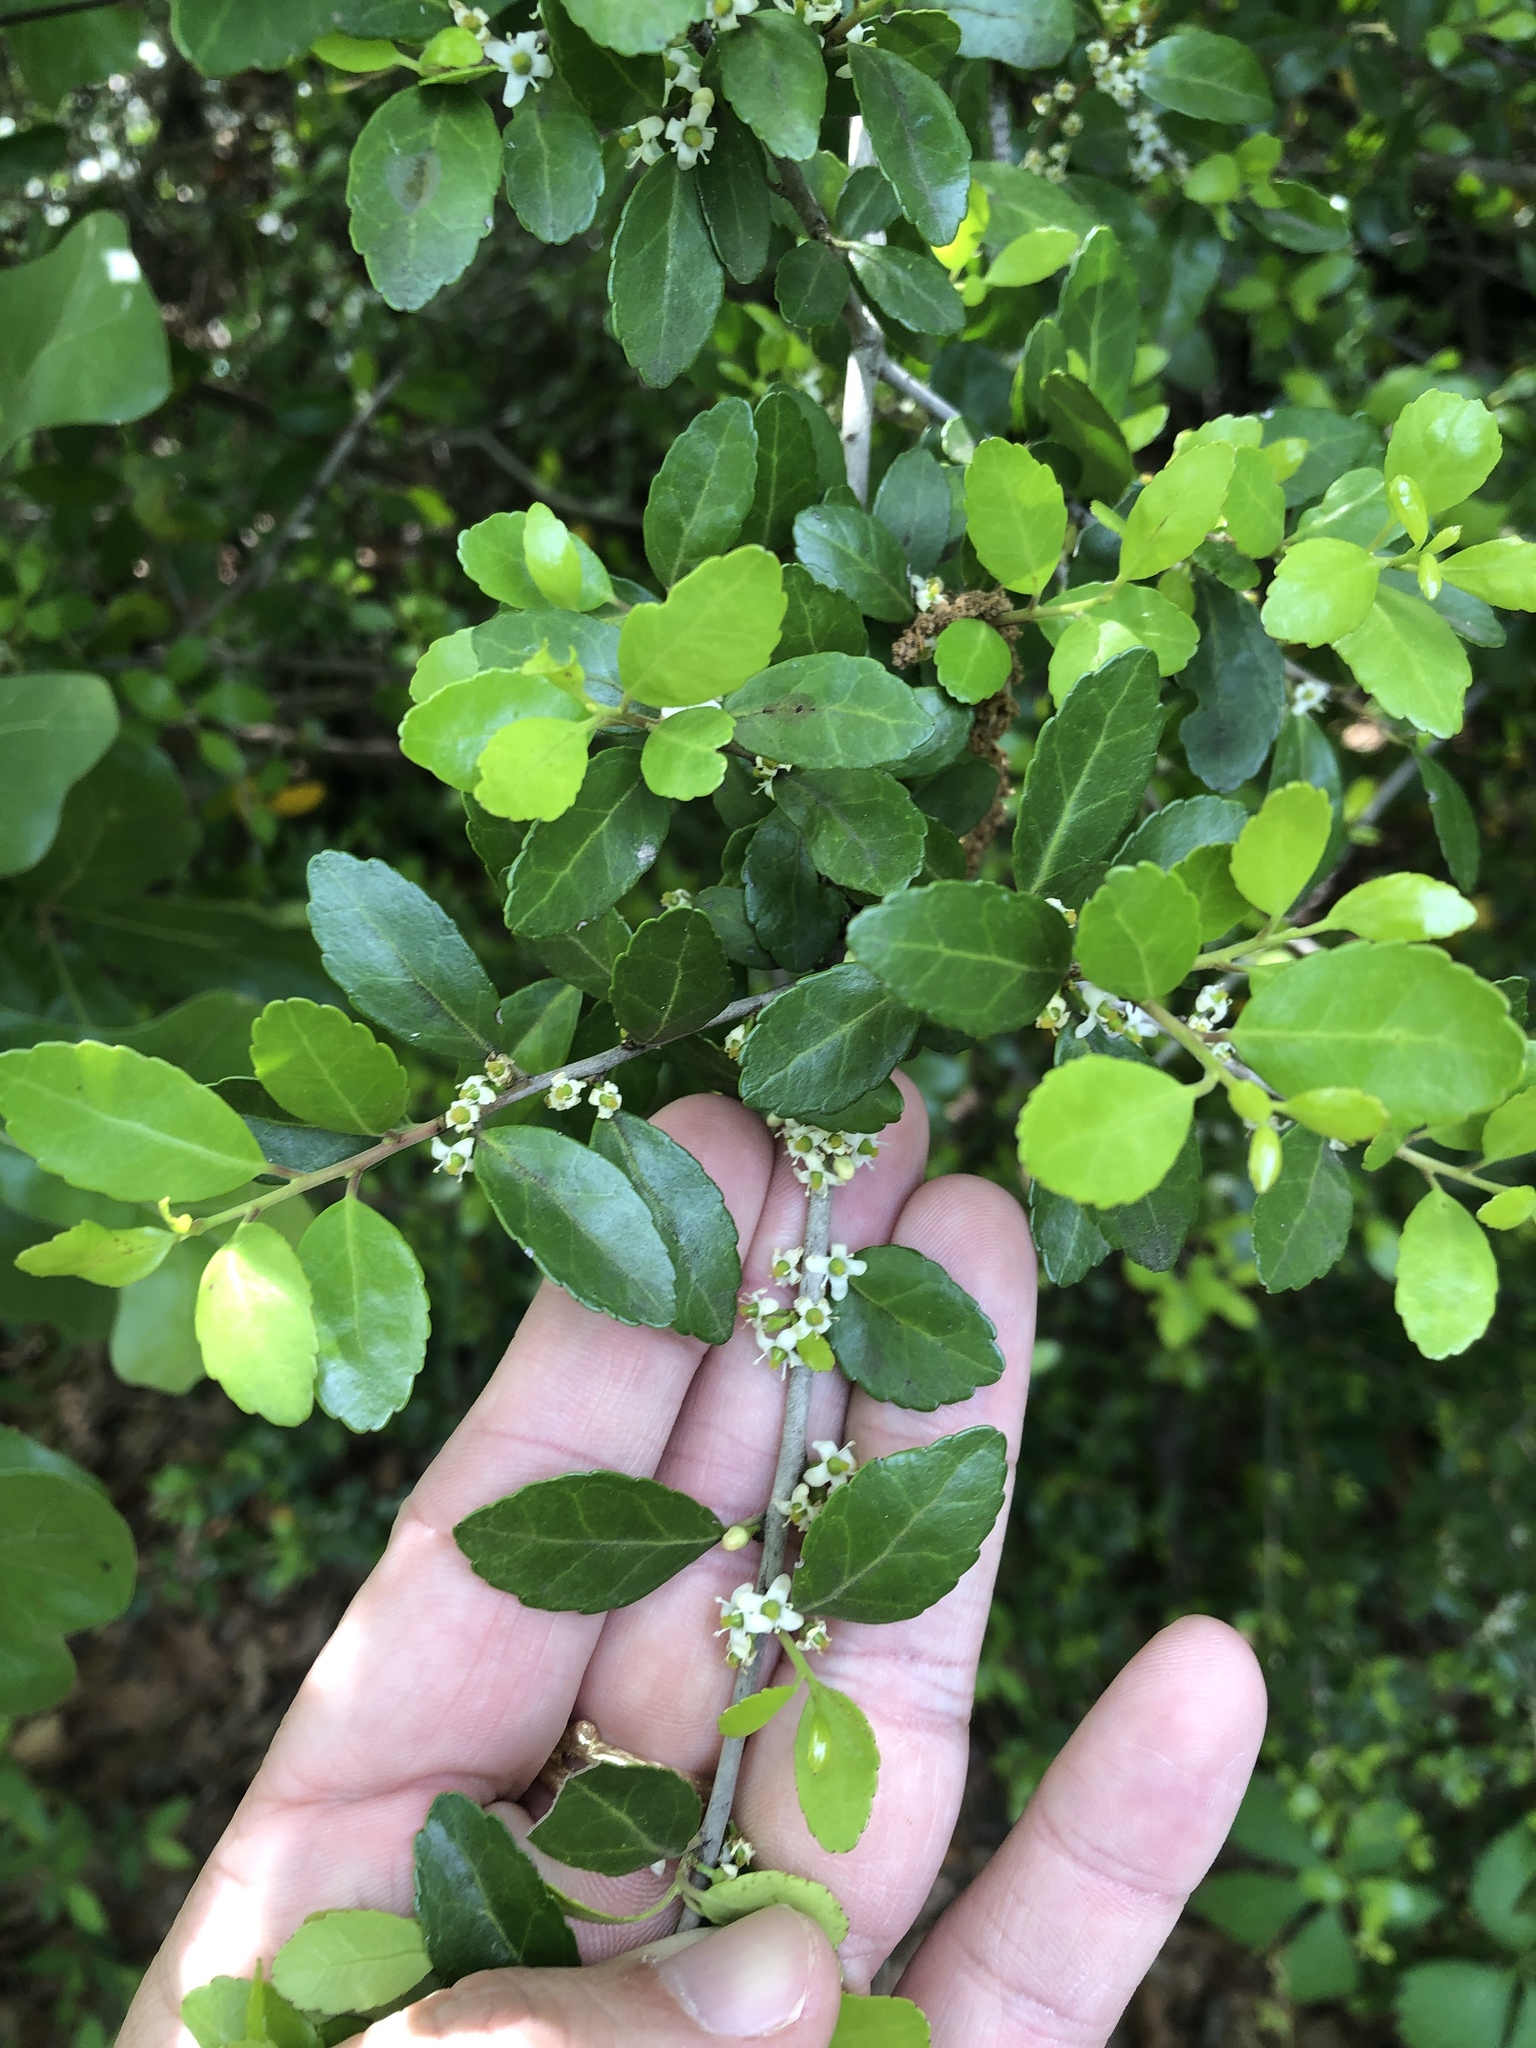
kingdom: Plantae
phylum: Tracheophyta
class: Magnoliopsida
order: Aquifoliales
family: Aquifoliaceae
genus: Ilex
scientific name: Ilex vomitoria
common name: Yaupon holly
